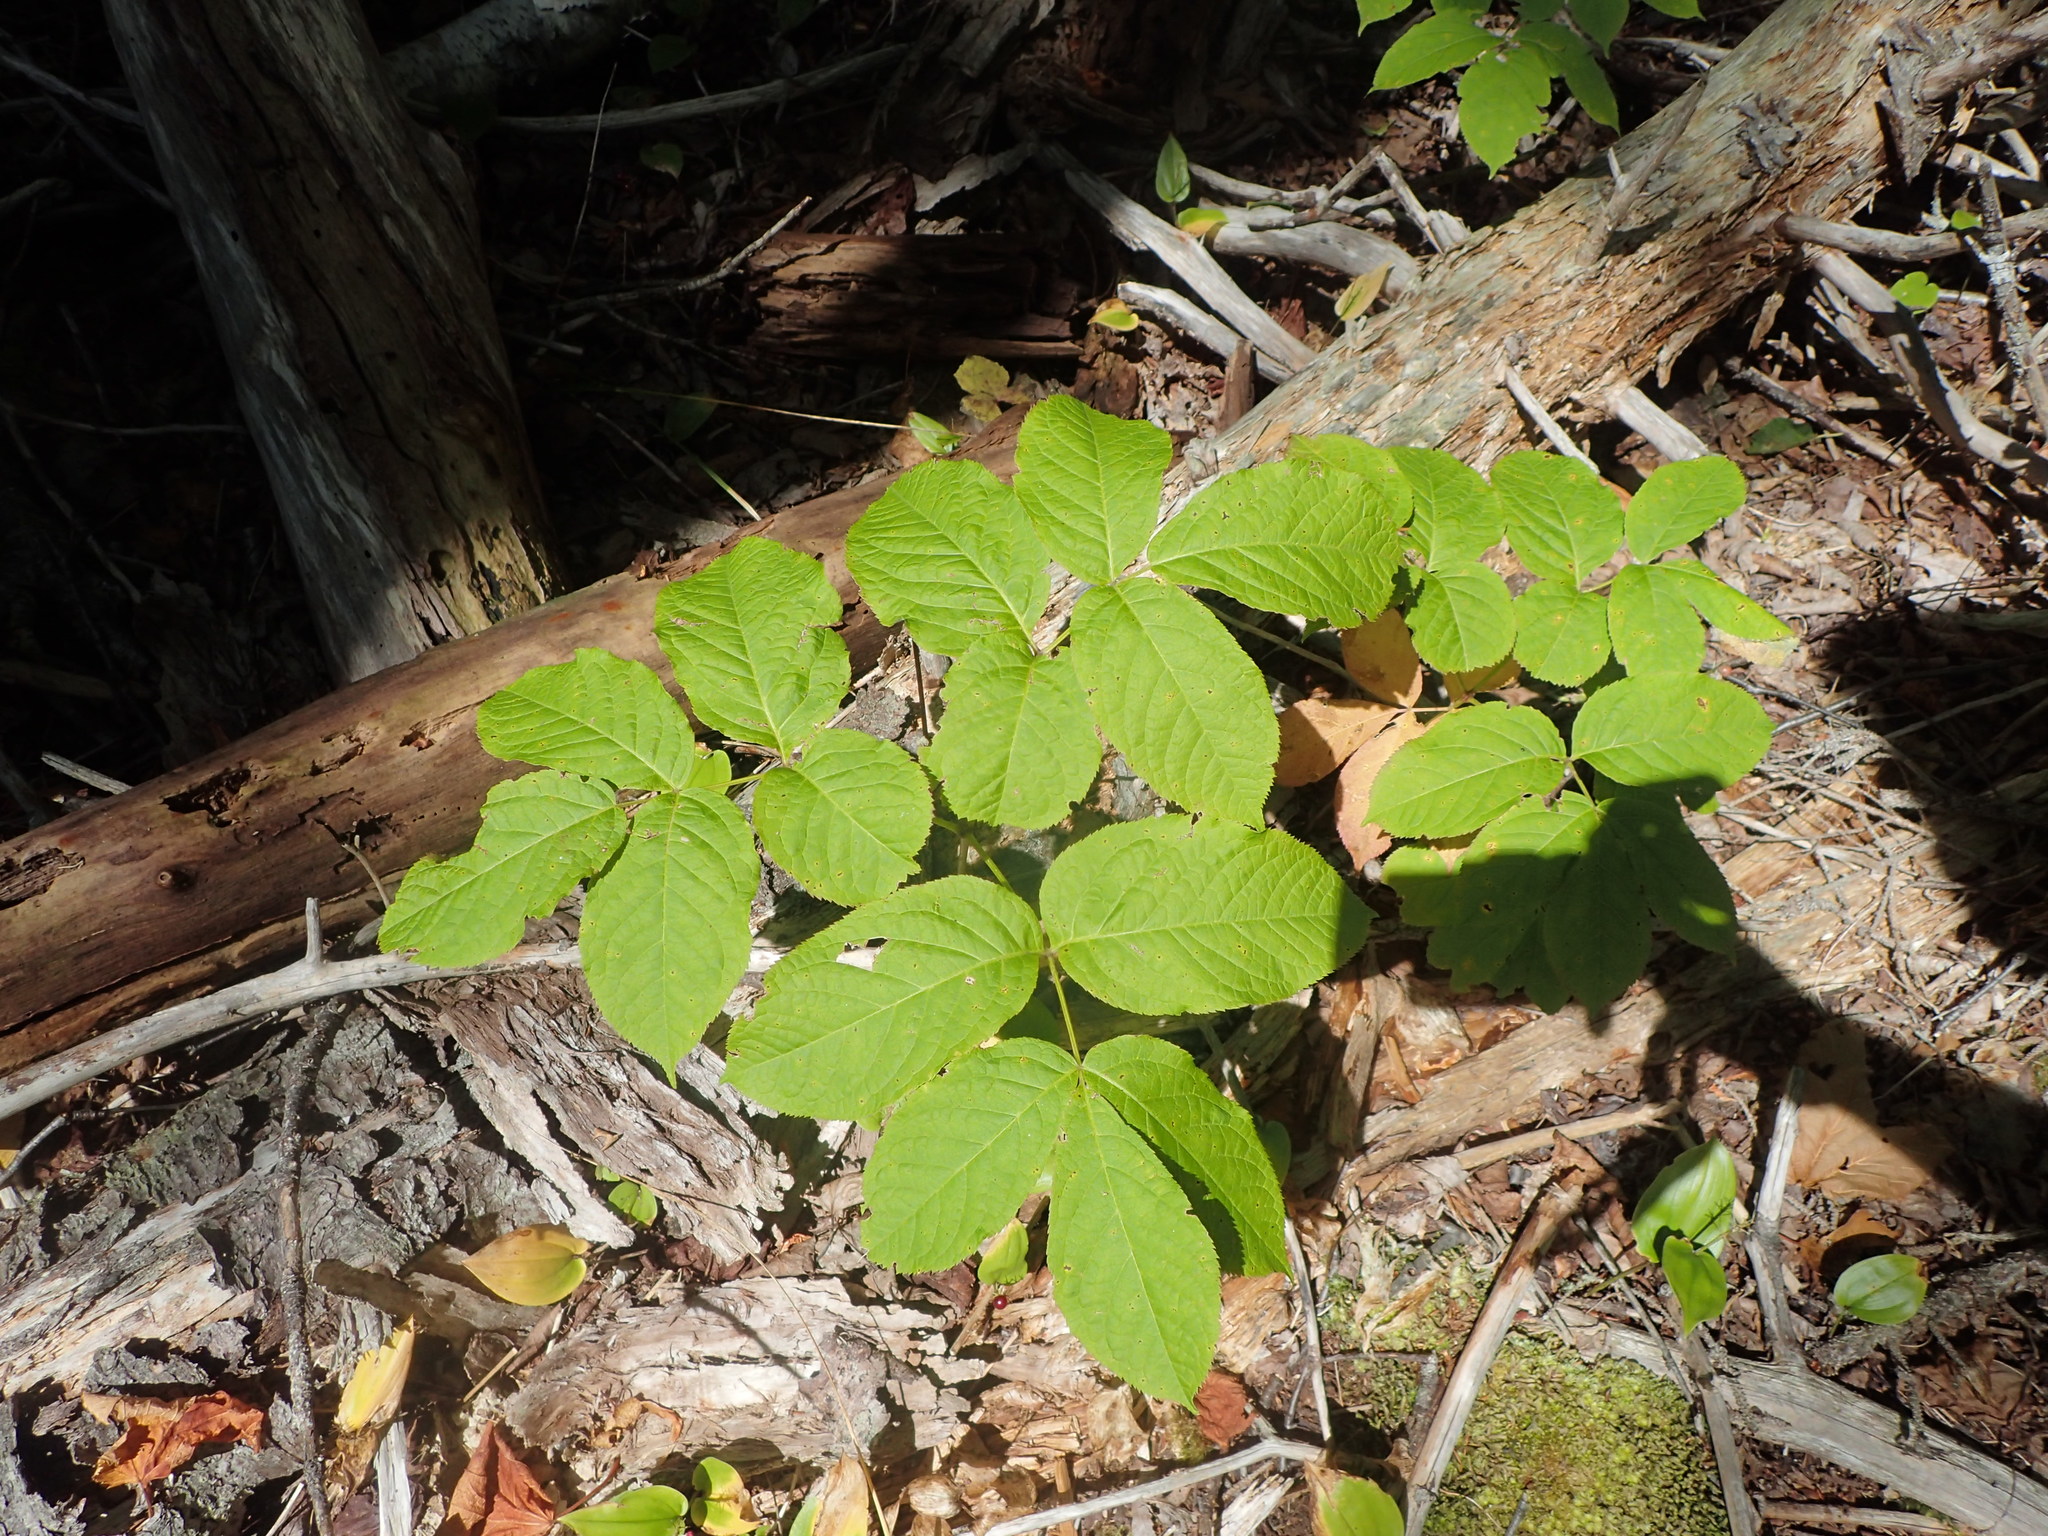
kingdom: Plantae
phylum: Tracheophyta
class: Magnoliopsida
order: Apiales
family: Araliaceae
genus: Aralia
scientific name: Aralia nudicaulis
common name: Wild sarsaparilla
